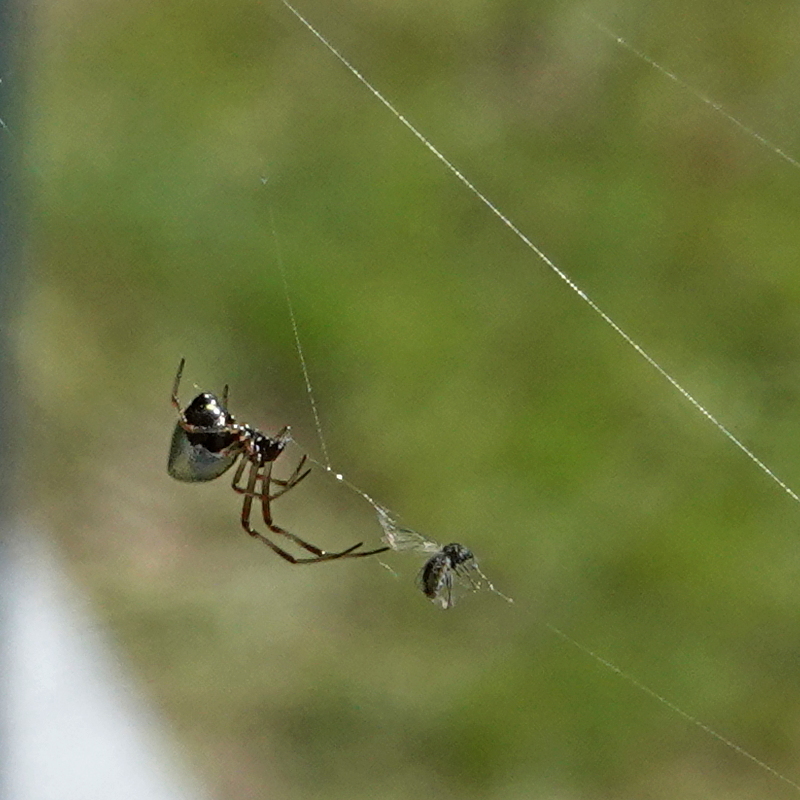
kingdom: Animalia
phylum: Arthropoda
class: Arachnida
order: Araneae
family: Theridiidae
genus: Argyrodes
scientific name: Argyrodes antipodianus
